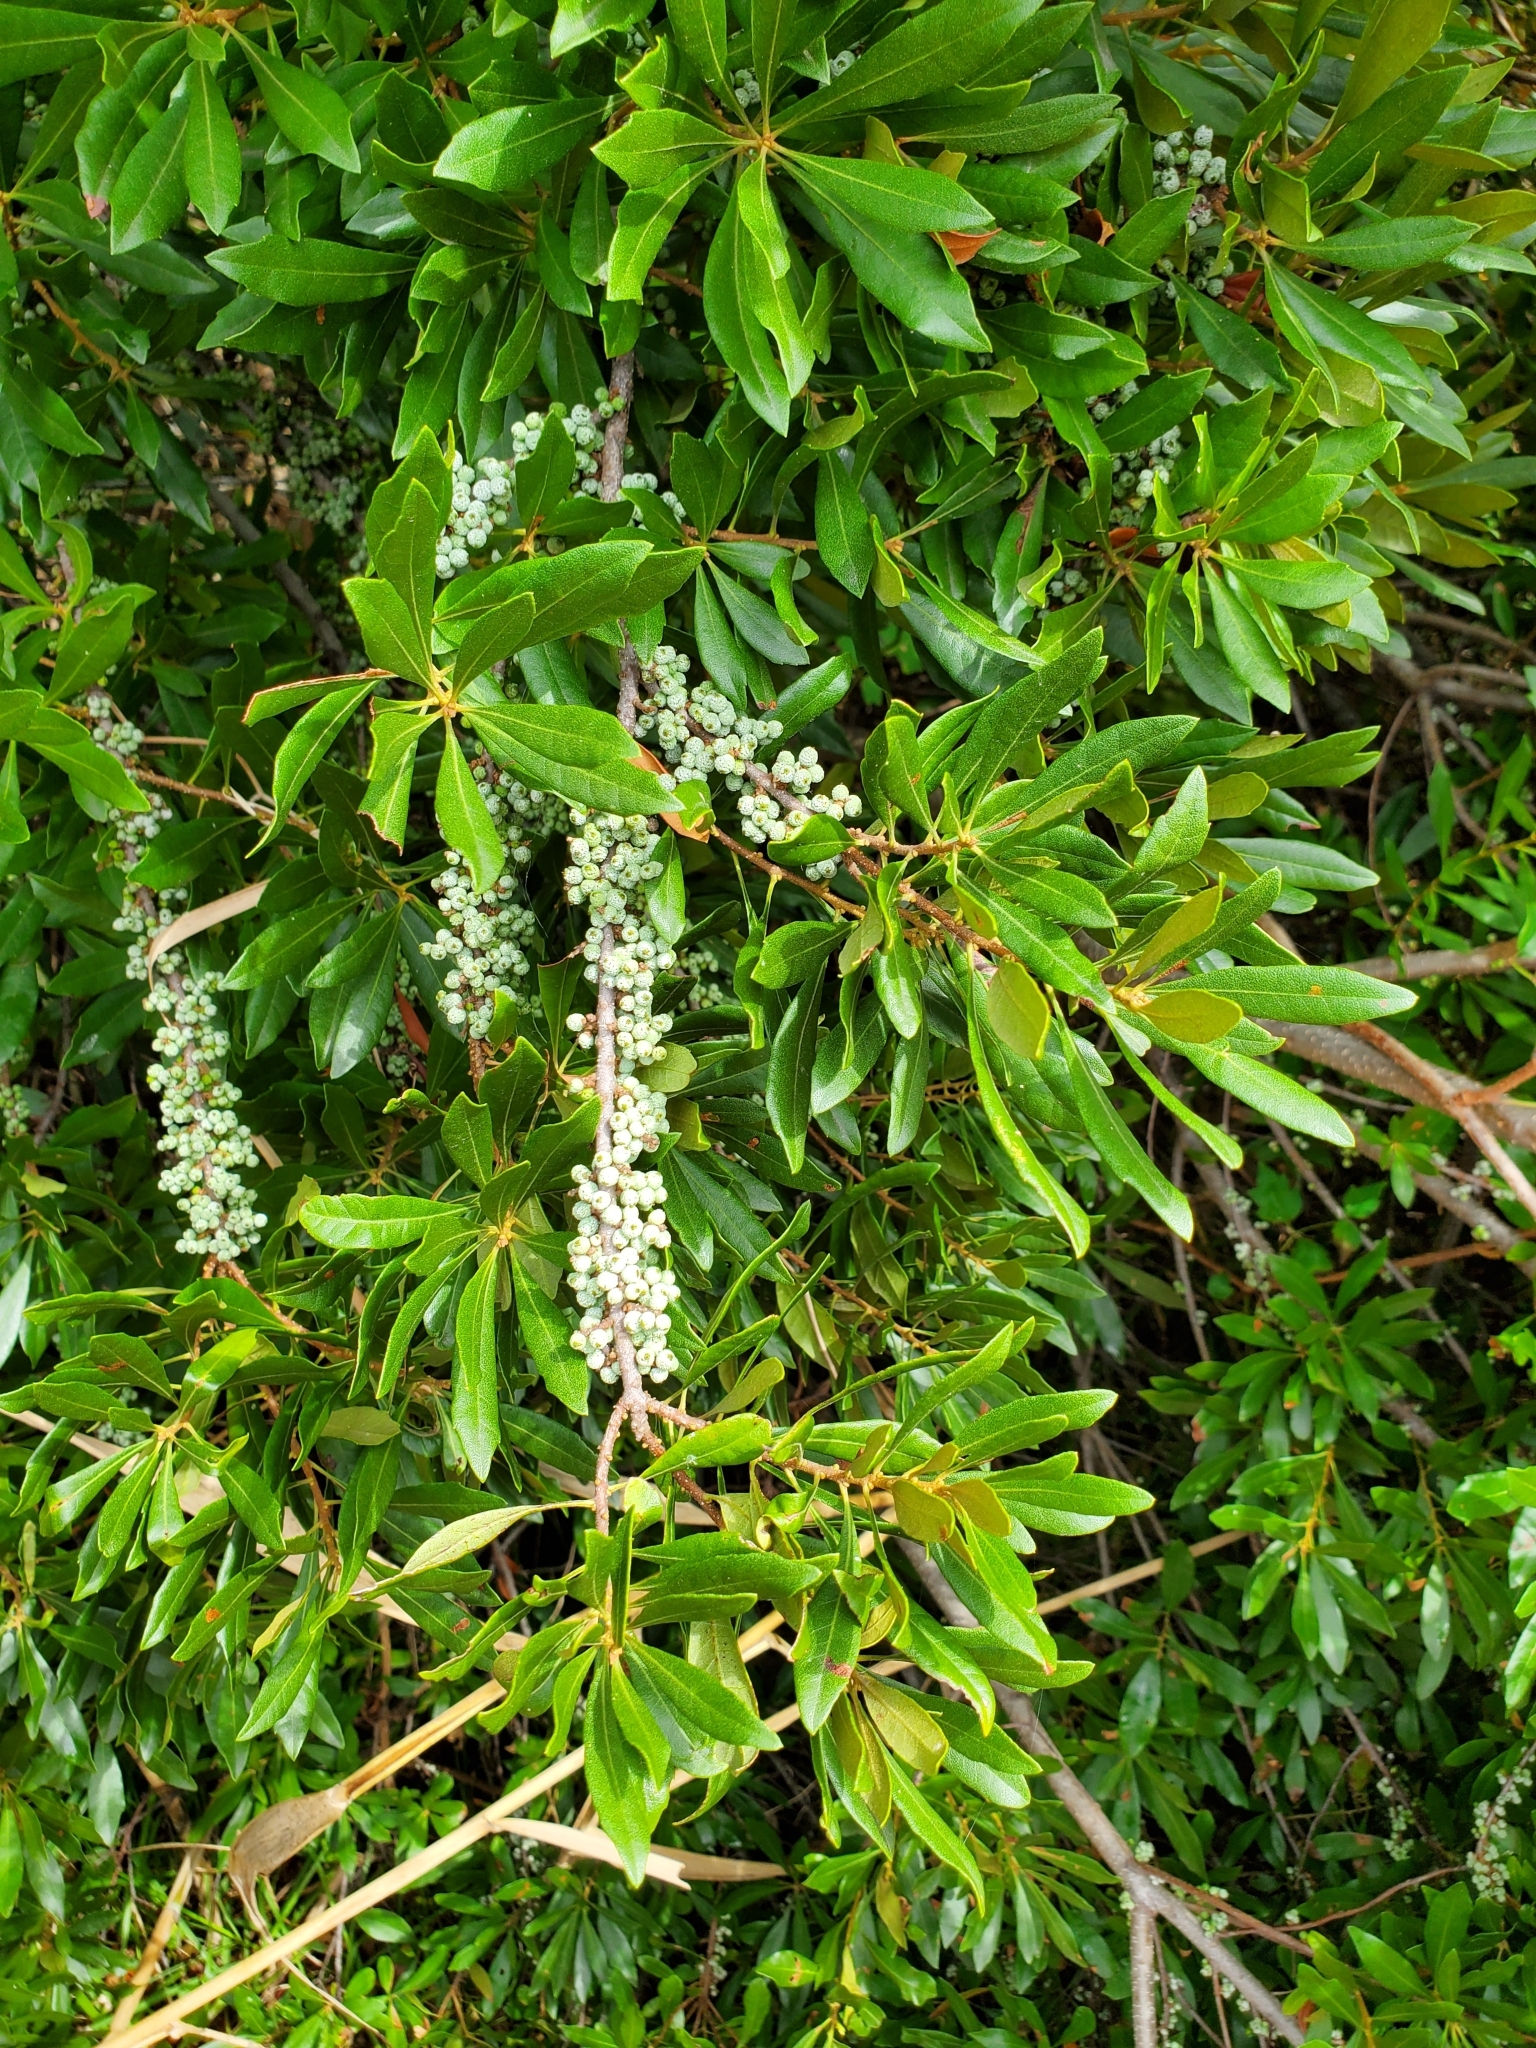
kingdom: Plantae
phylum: Tracheophyta
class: Magnoliopsida
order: Fagales
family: Myricaceae
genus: Morella
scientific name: Morella cerifera
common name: Wax myrtle
